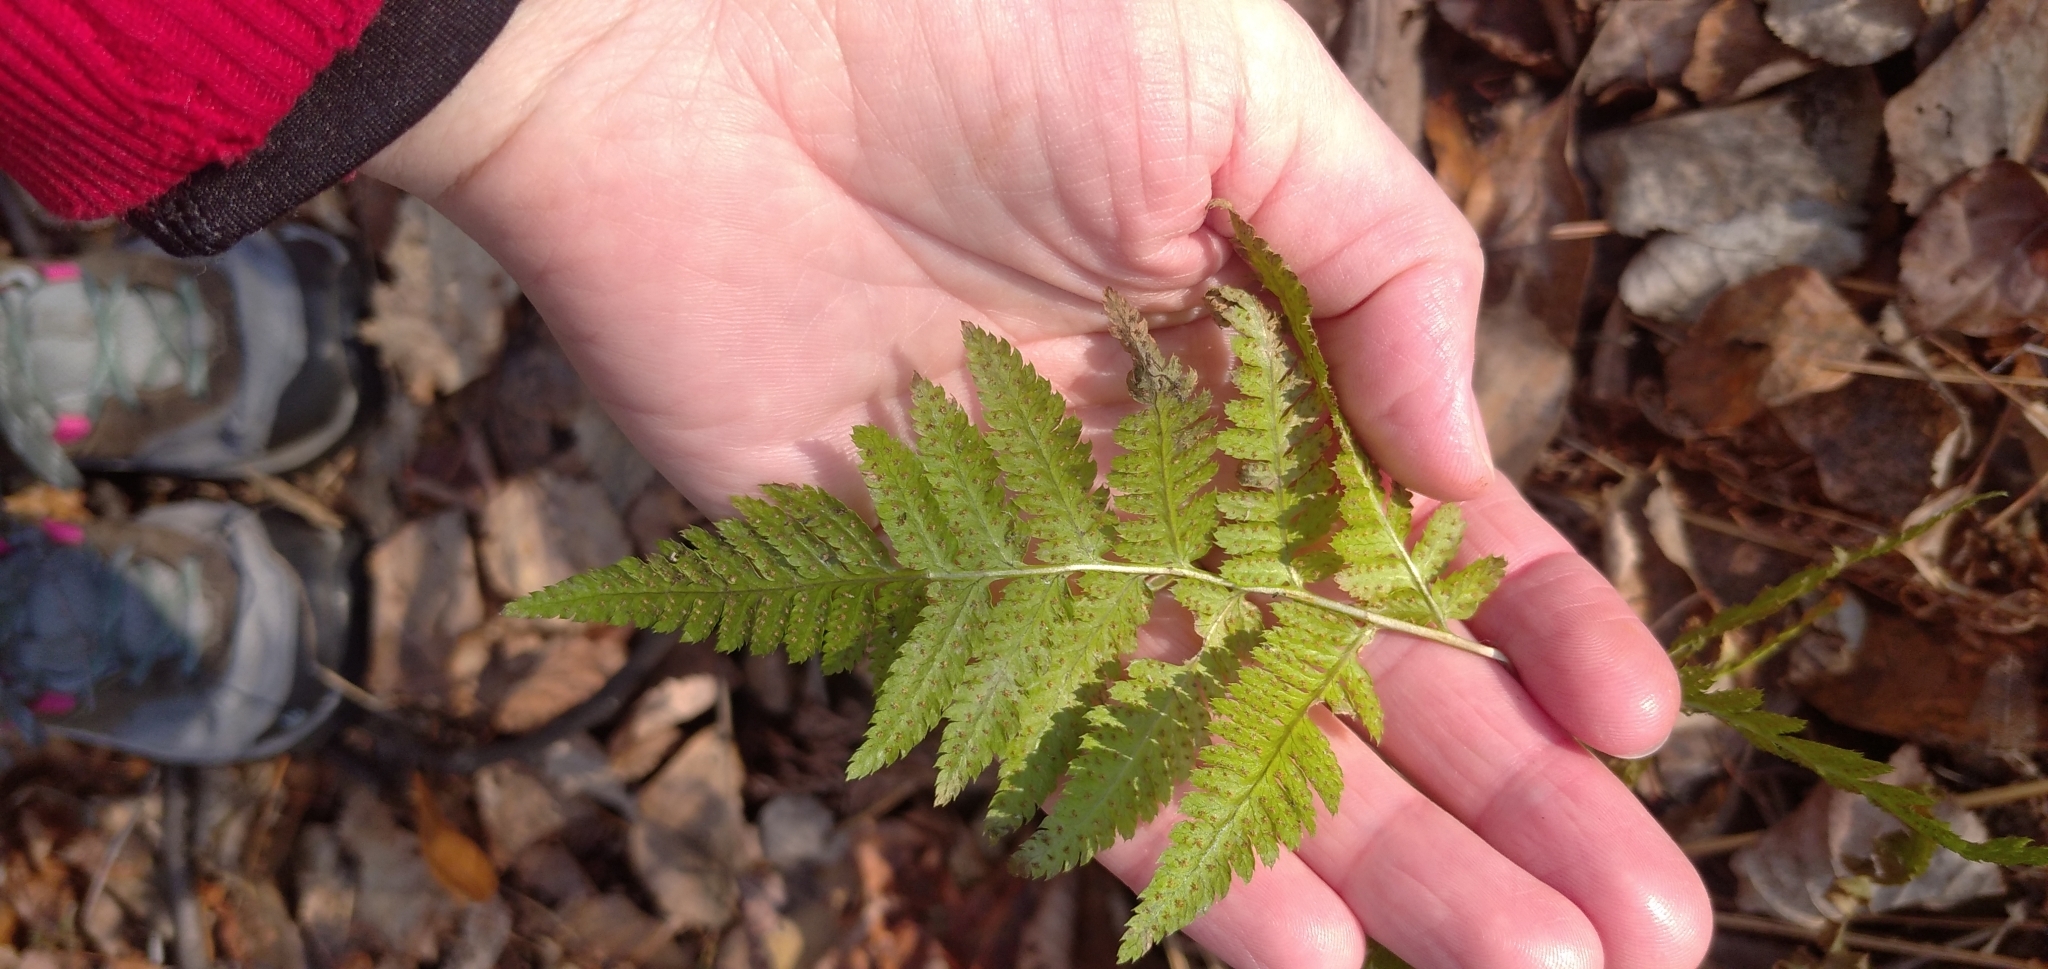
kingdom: Plantae
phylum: Tracheophyta
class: Polypodiopsida
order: Polypodiales
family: Dryopteridaceae
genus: Dryopteris
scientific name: Dryopteris carthusiana
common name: Narrow buckler-fern
